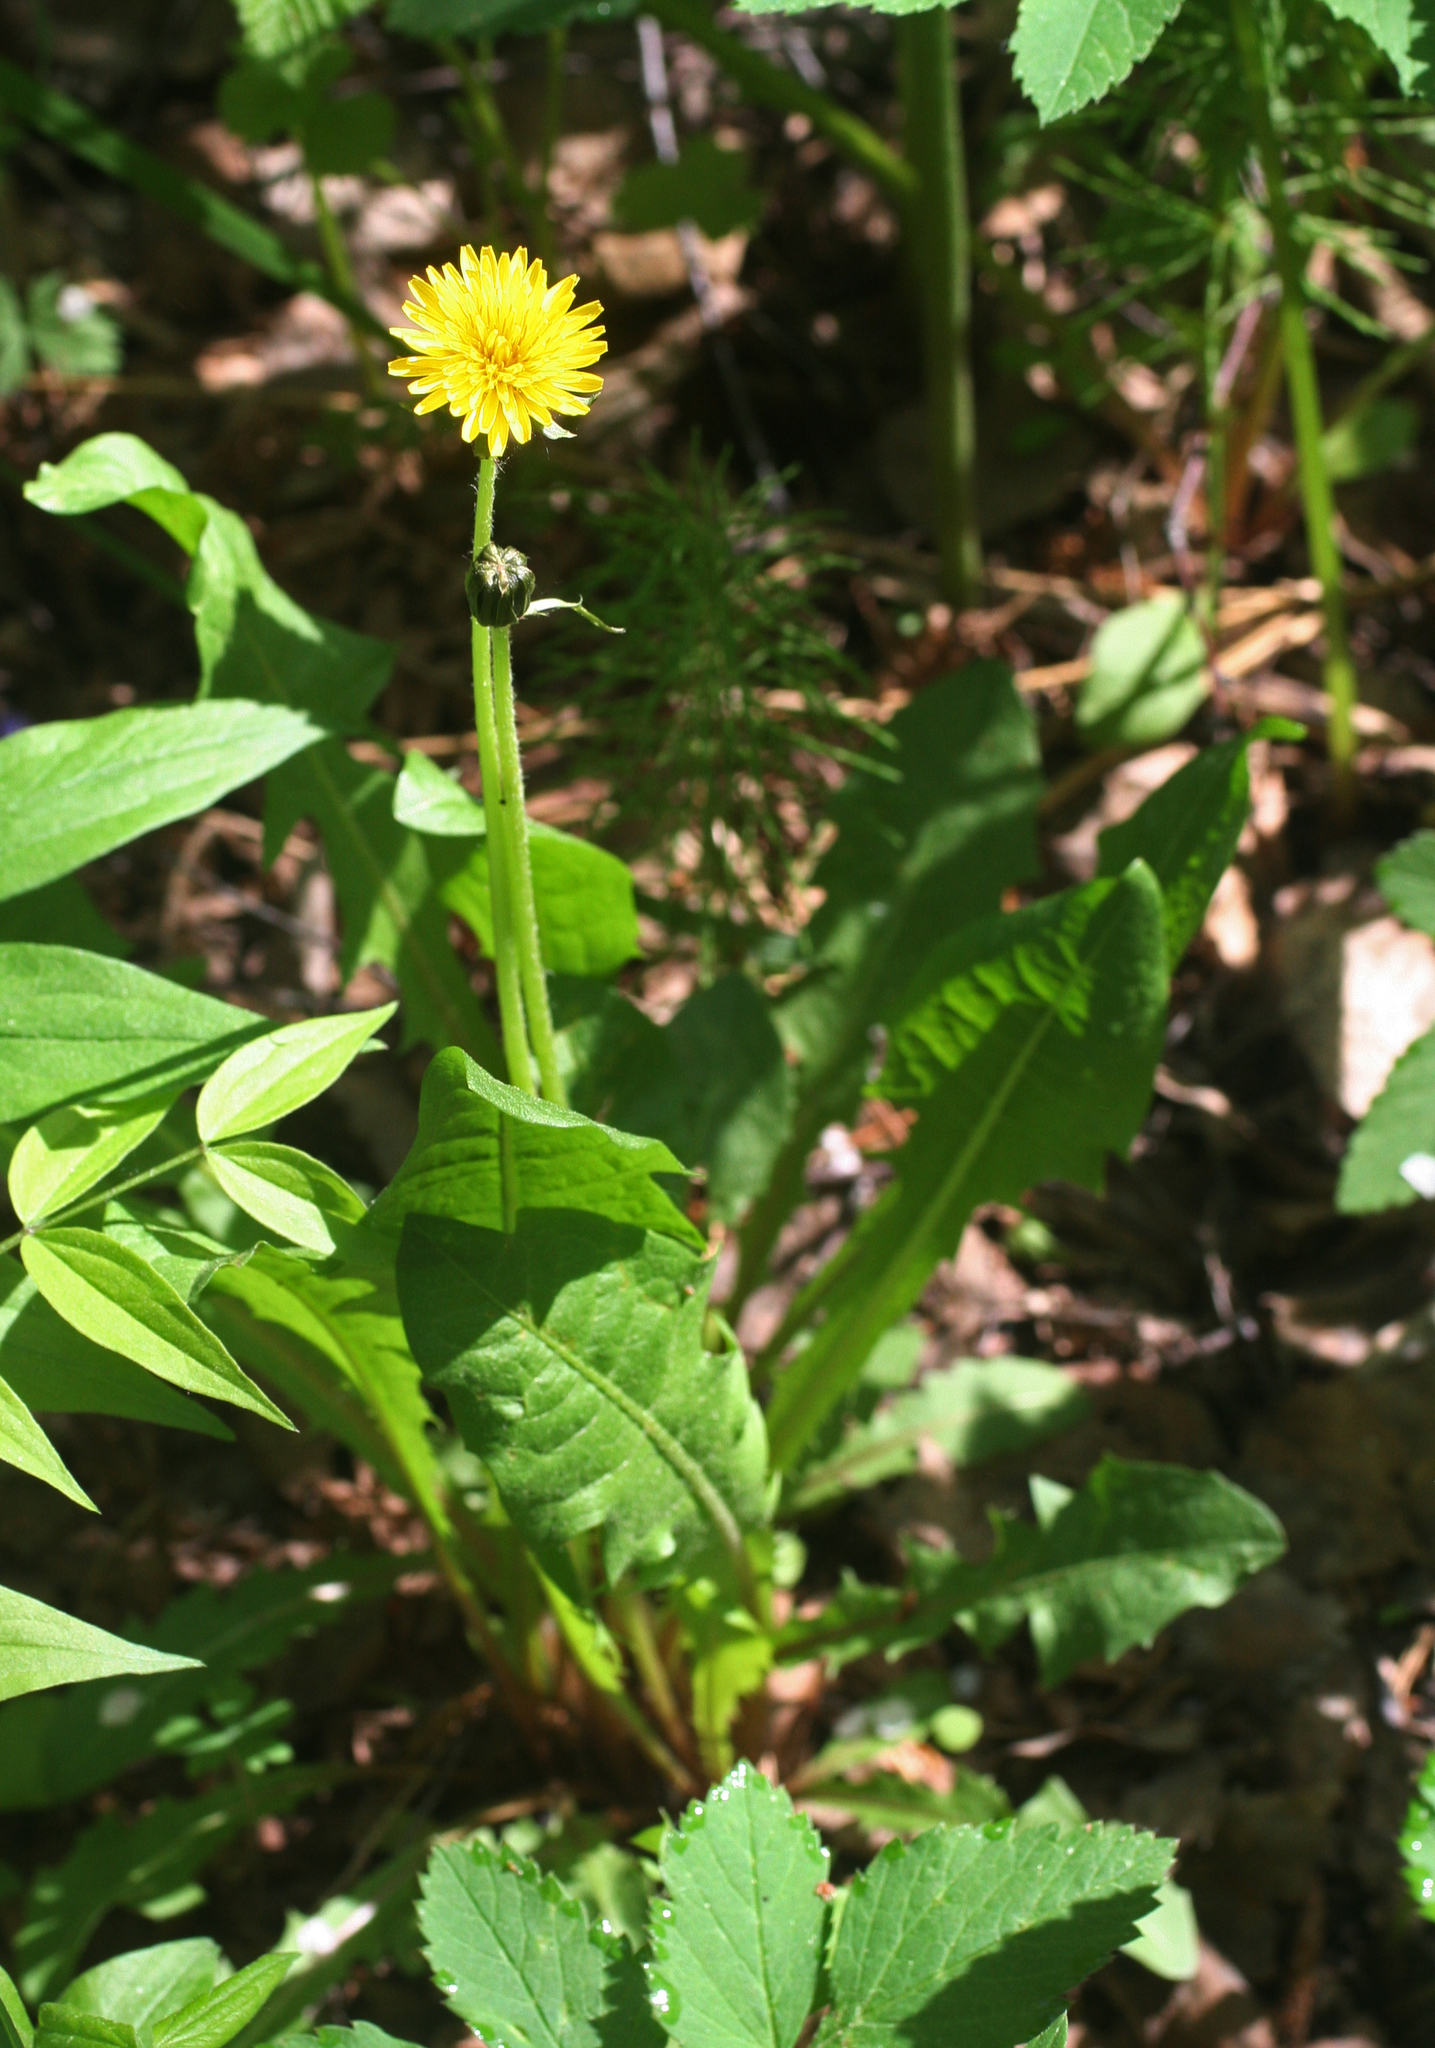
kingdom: Plantae
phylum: Tracheophyta
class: Magnoliopsida
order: Asterales
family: Asteraceae
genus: Taraxacum
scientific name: Taraxacum officinale
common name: Common dandelion
